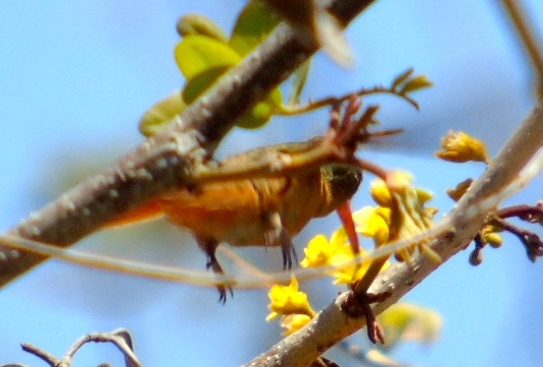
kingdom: Animalia
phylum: Chordata
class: Aves
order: Apodiformes
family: Trochilidae
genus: Amazilia
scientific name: Amazilia rutila
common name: Cinnamon hummingbird
